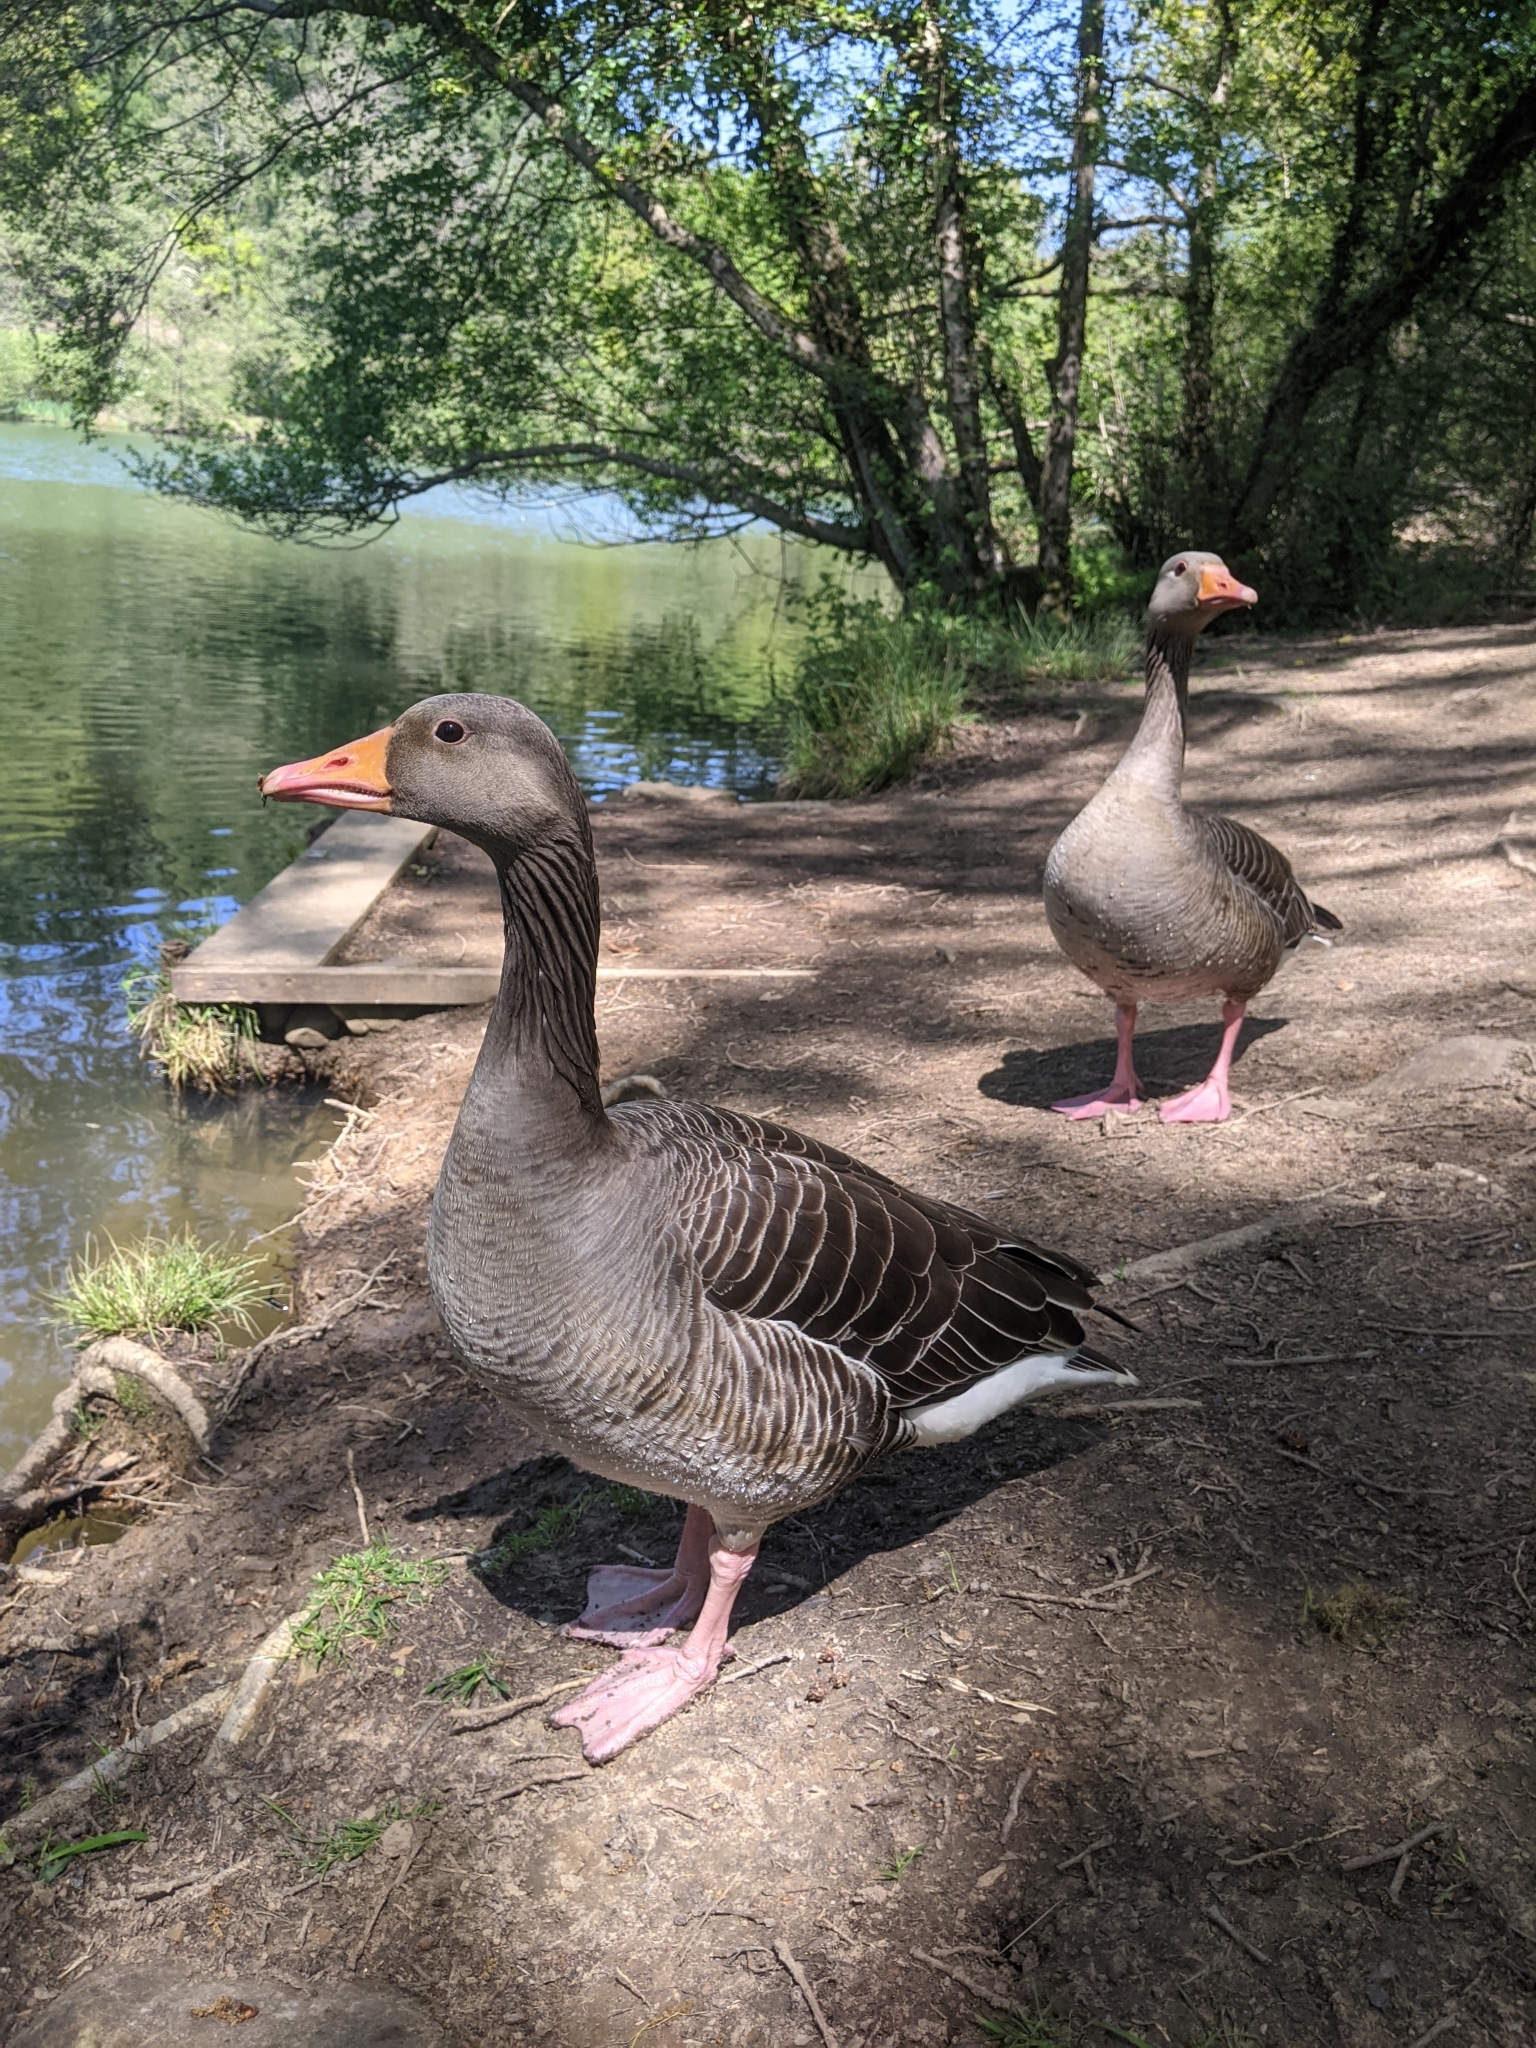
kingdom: Animalia
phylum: Chordata
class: Aves
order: Anseriformes
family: Anatidae
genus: Anser
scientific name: Anser anser
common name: Greylag goose
